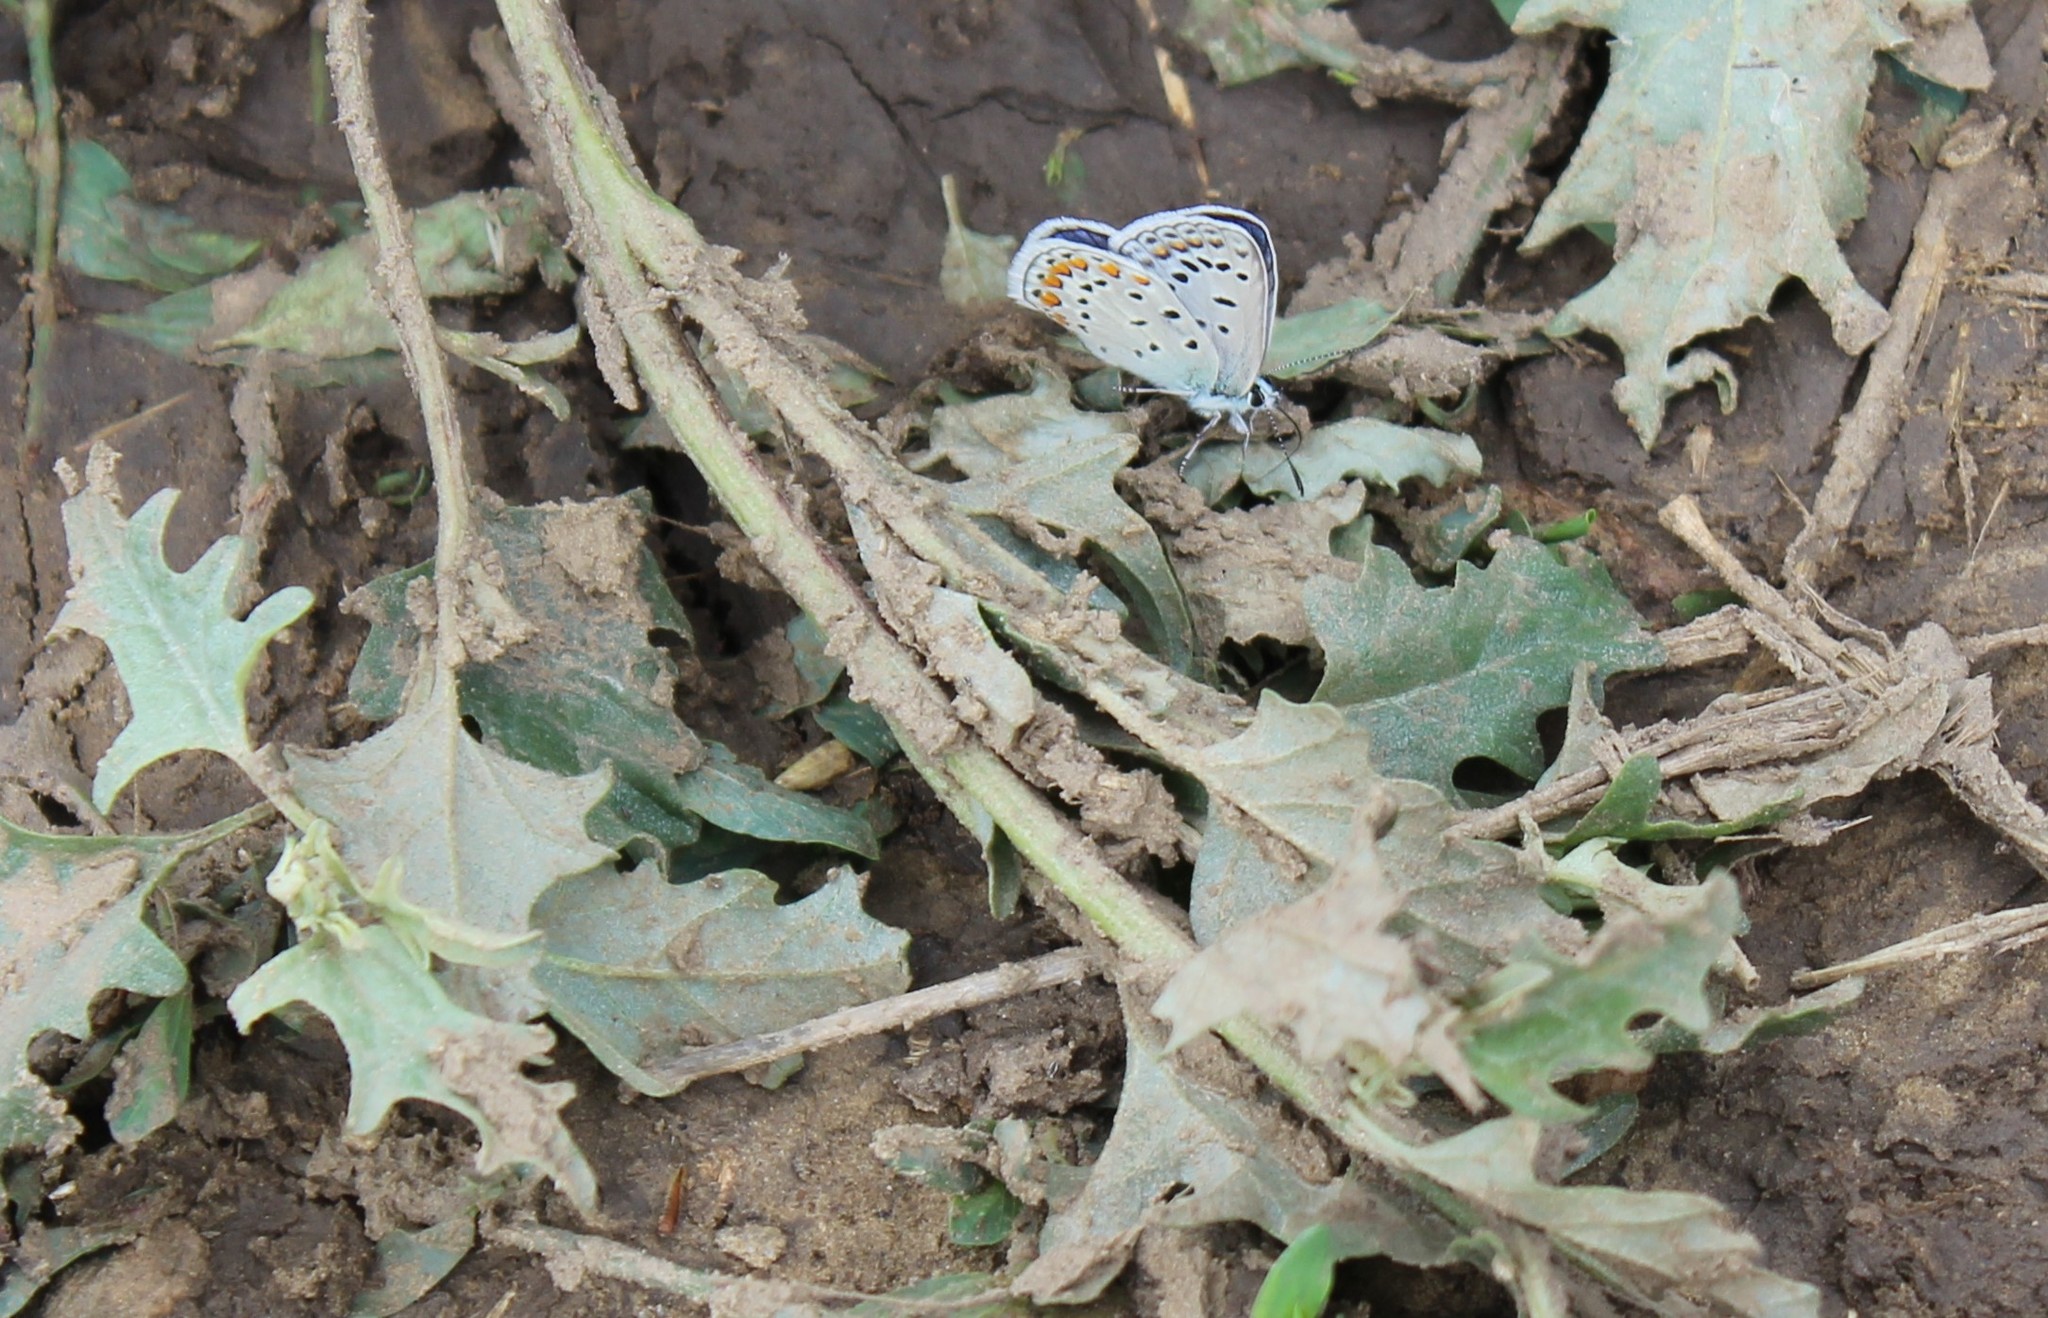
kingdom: Animalia
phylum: Arthropoda
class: Insecta
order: Lepidoptera
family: Lycaenidae
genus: Polyommatus
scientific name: Polyommatus icarus
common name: Common blue
